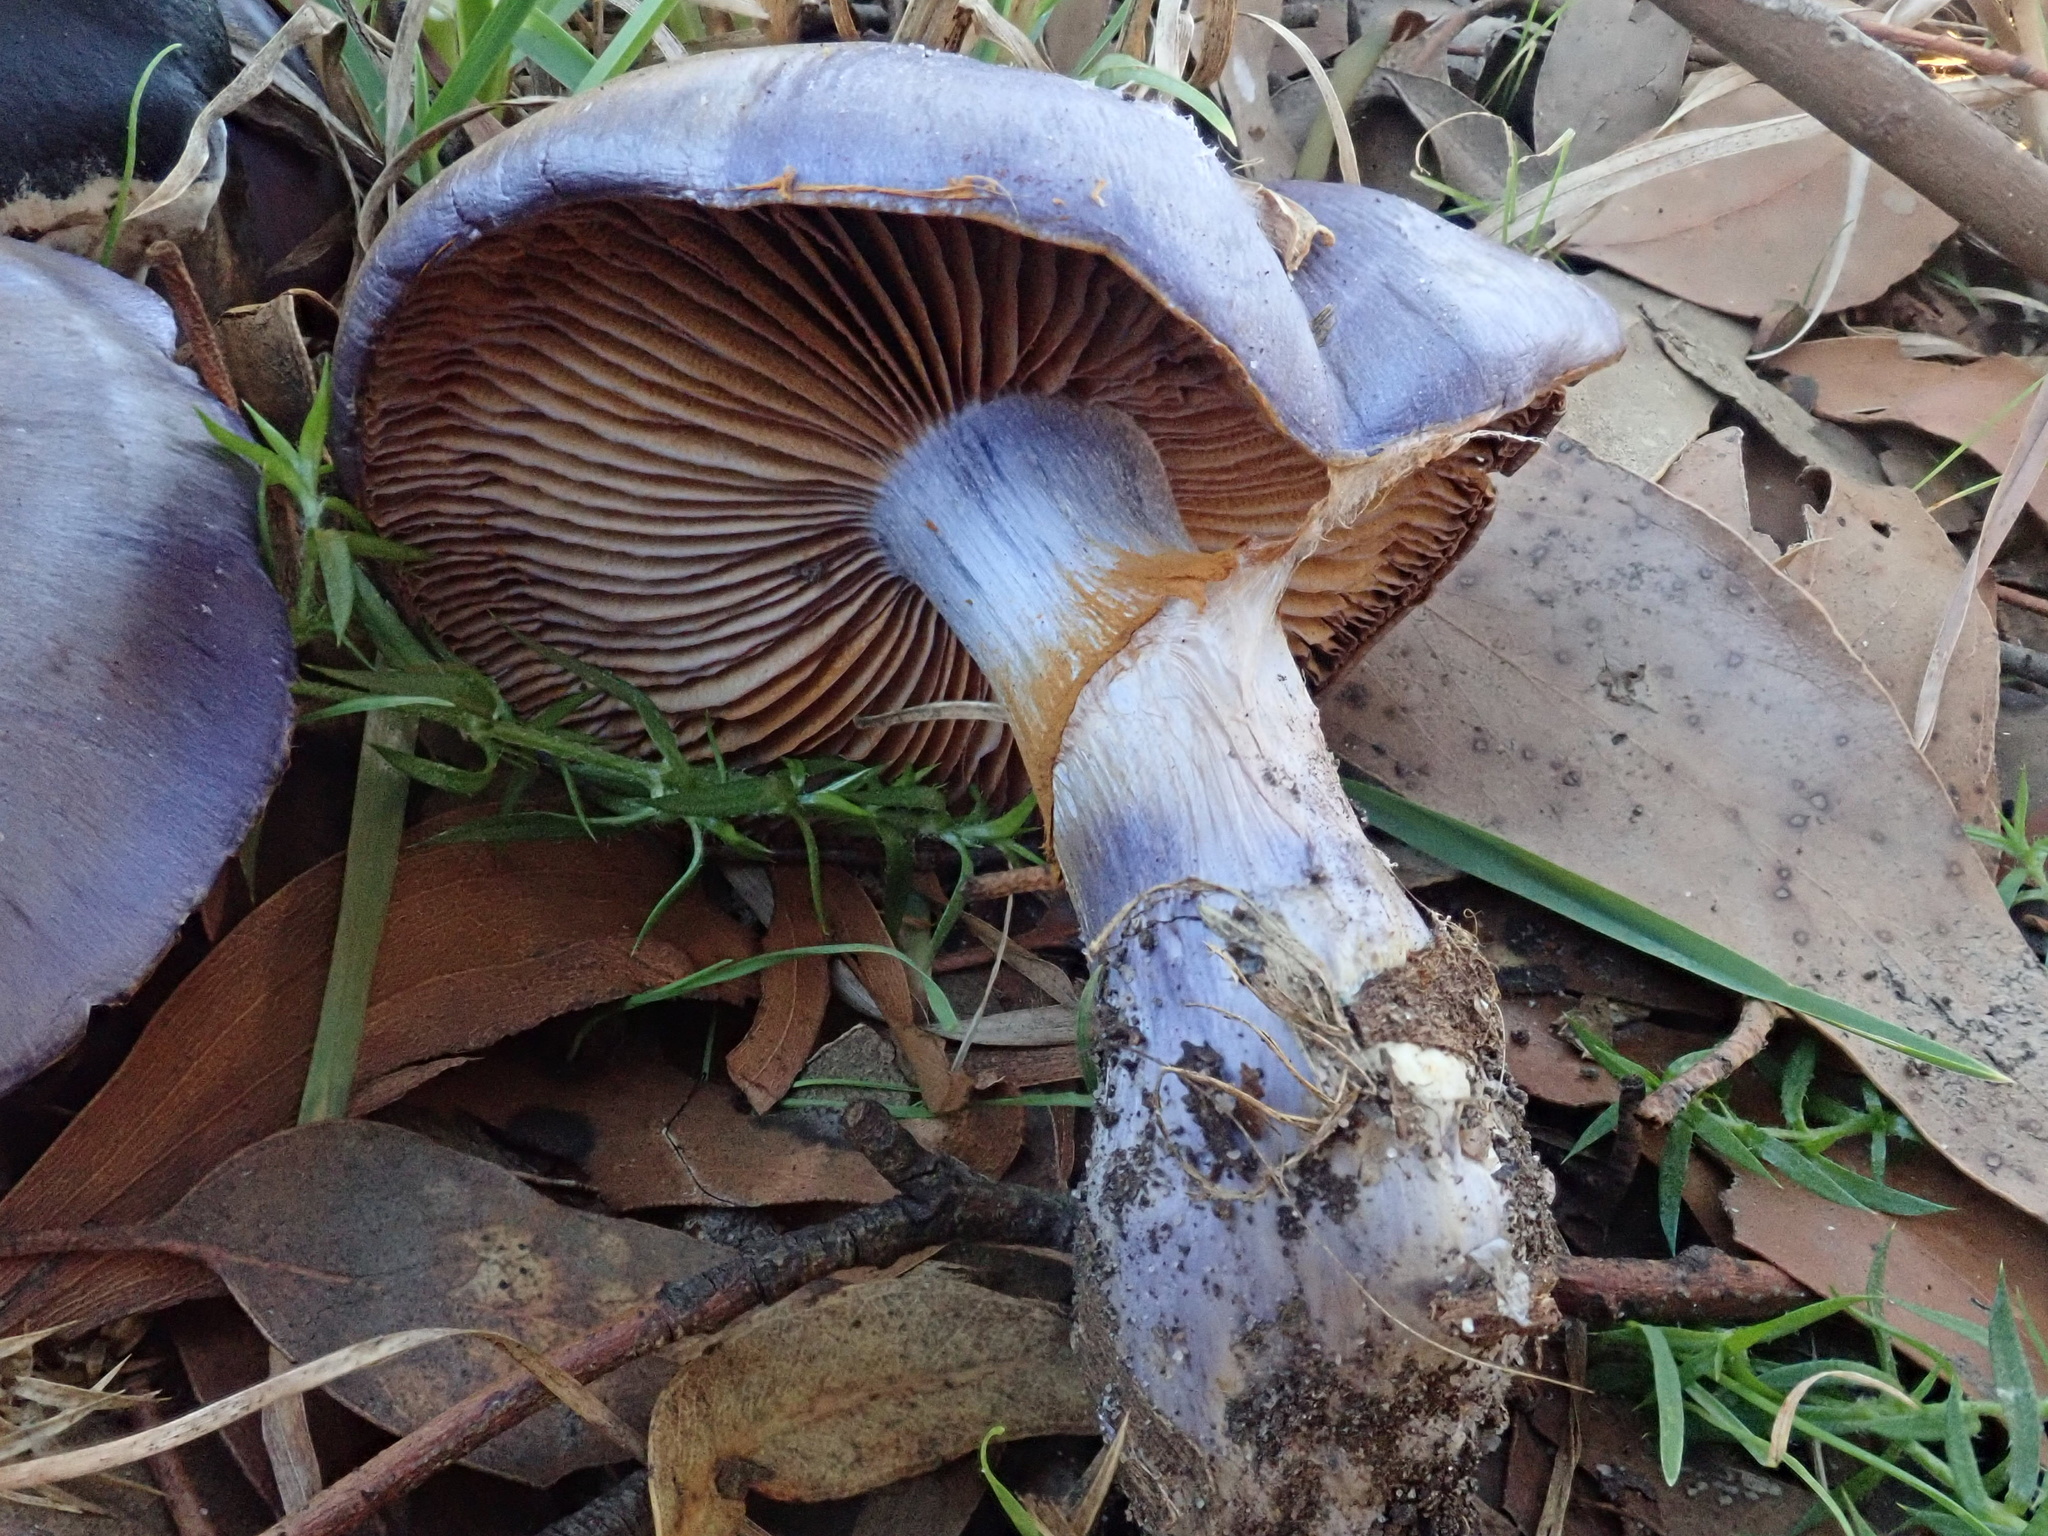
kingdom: Fungi
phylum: Basidiomycota
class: Agaricomycetes
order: Agaricales
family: Cortinariaceae
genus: Cortinarius
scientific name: Cortinarius archeri
